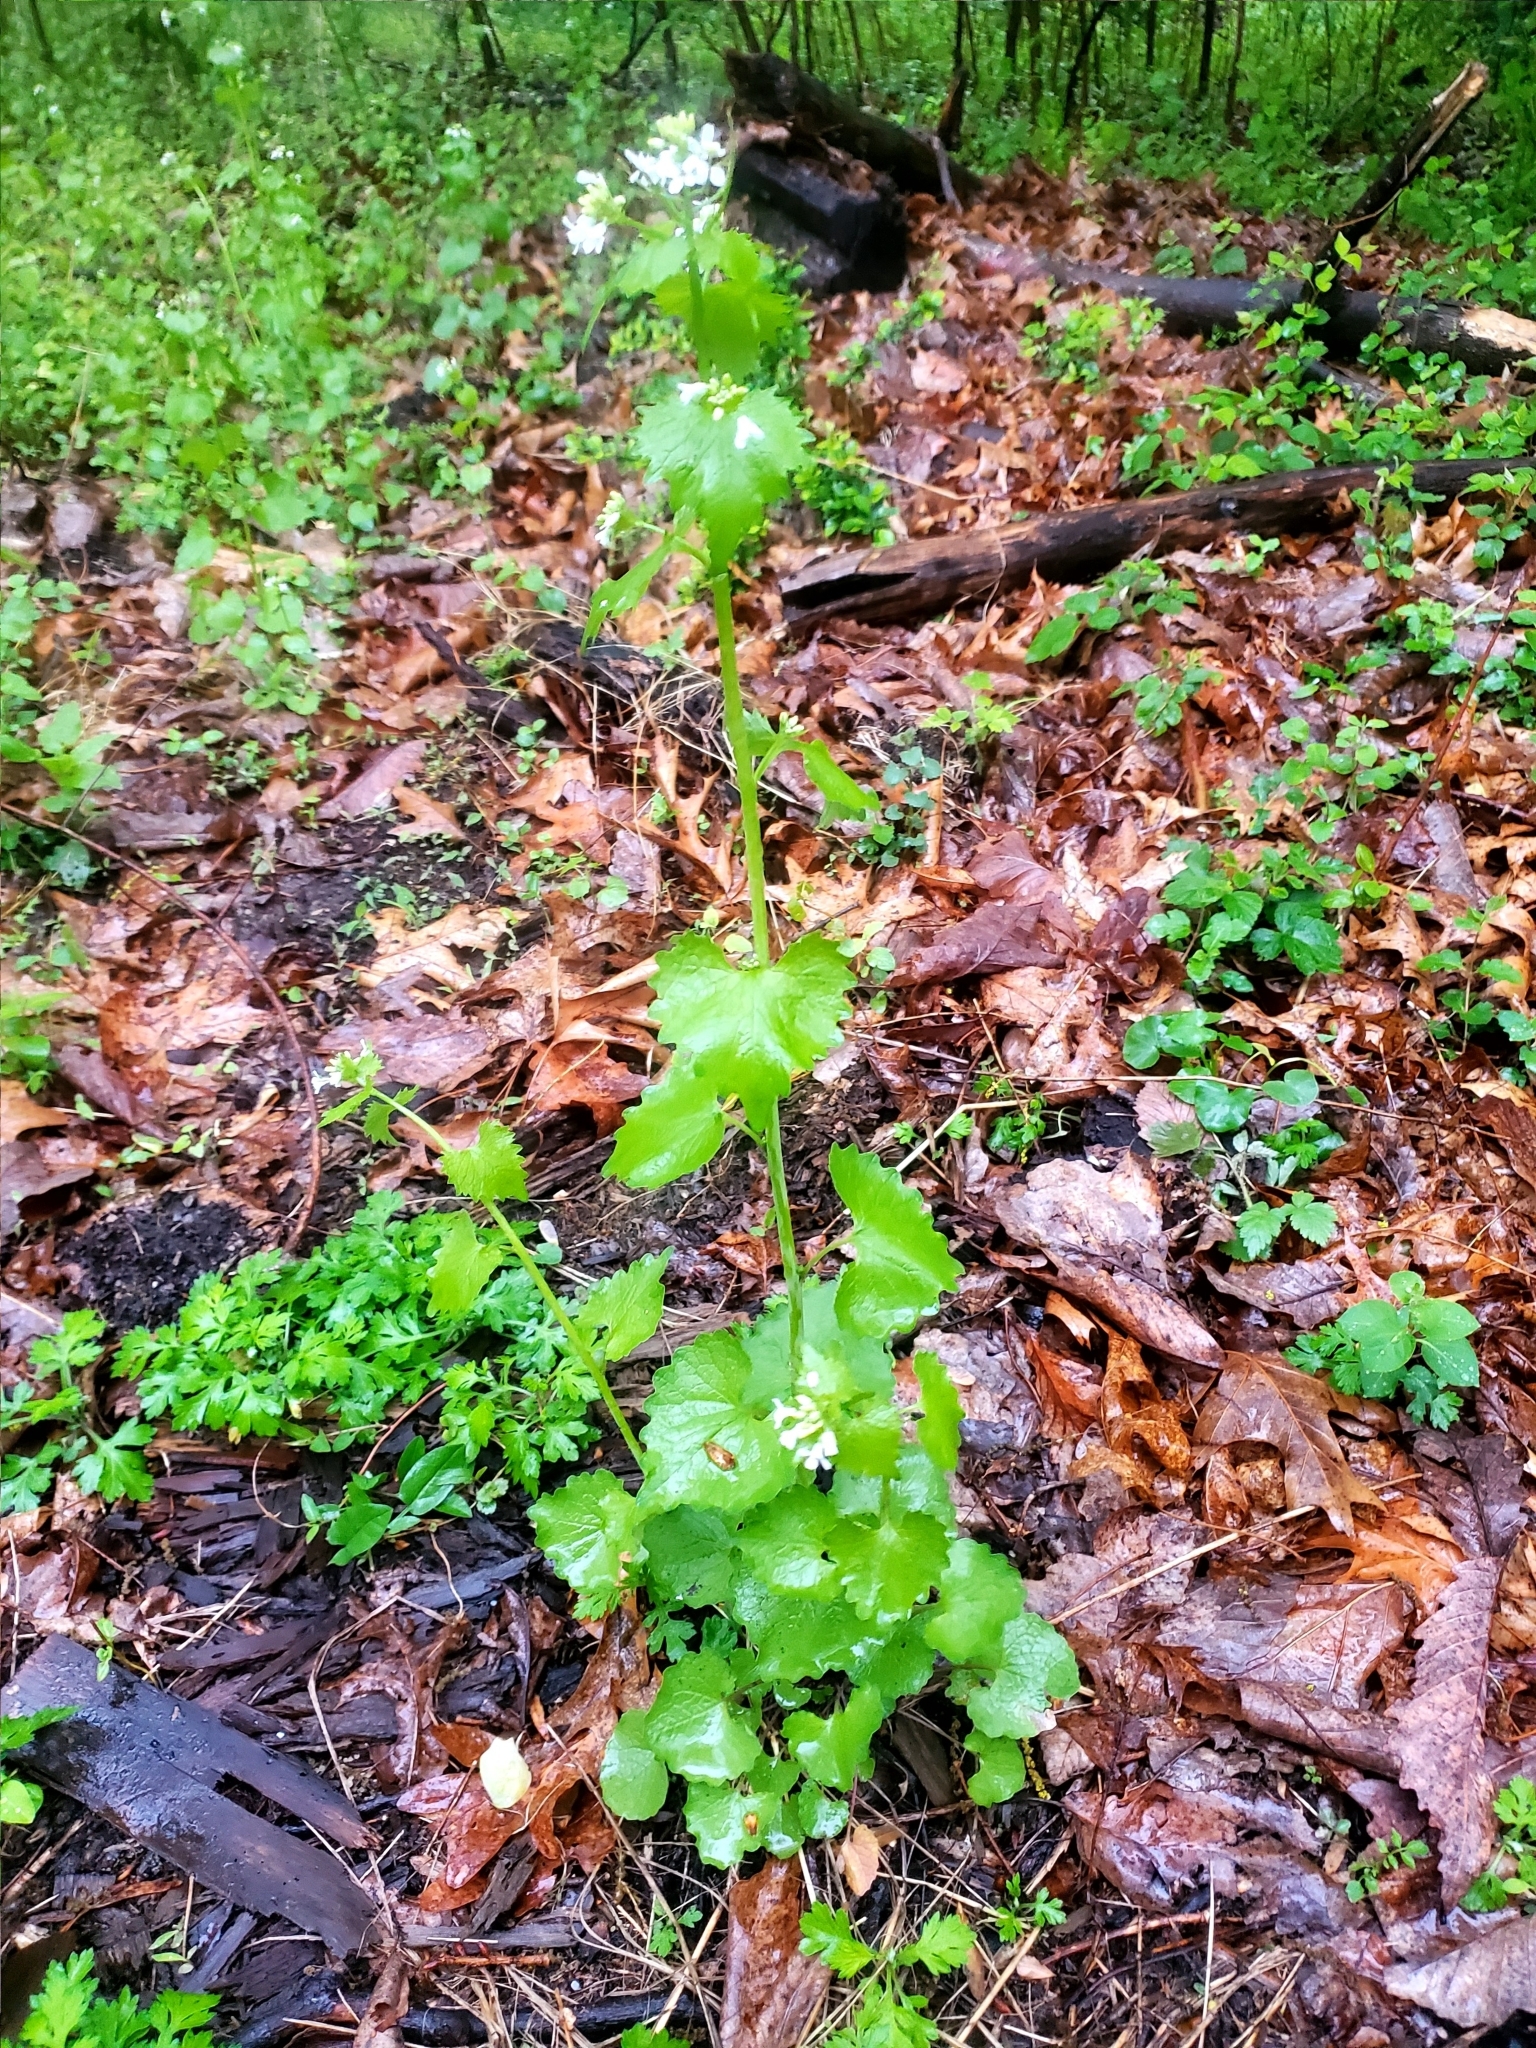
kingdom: Plantae
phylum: Tracheophyta
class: Magnoliopsida
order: Brassicales
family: Brassicaceae
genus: Alliaria
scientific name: Alliaria petiolata
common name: Garlic mustard
